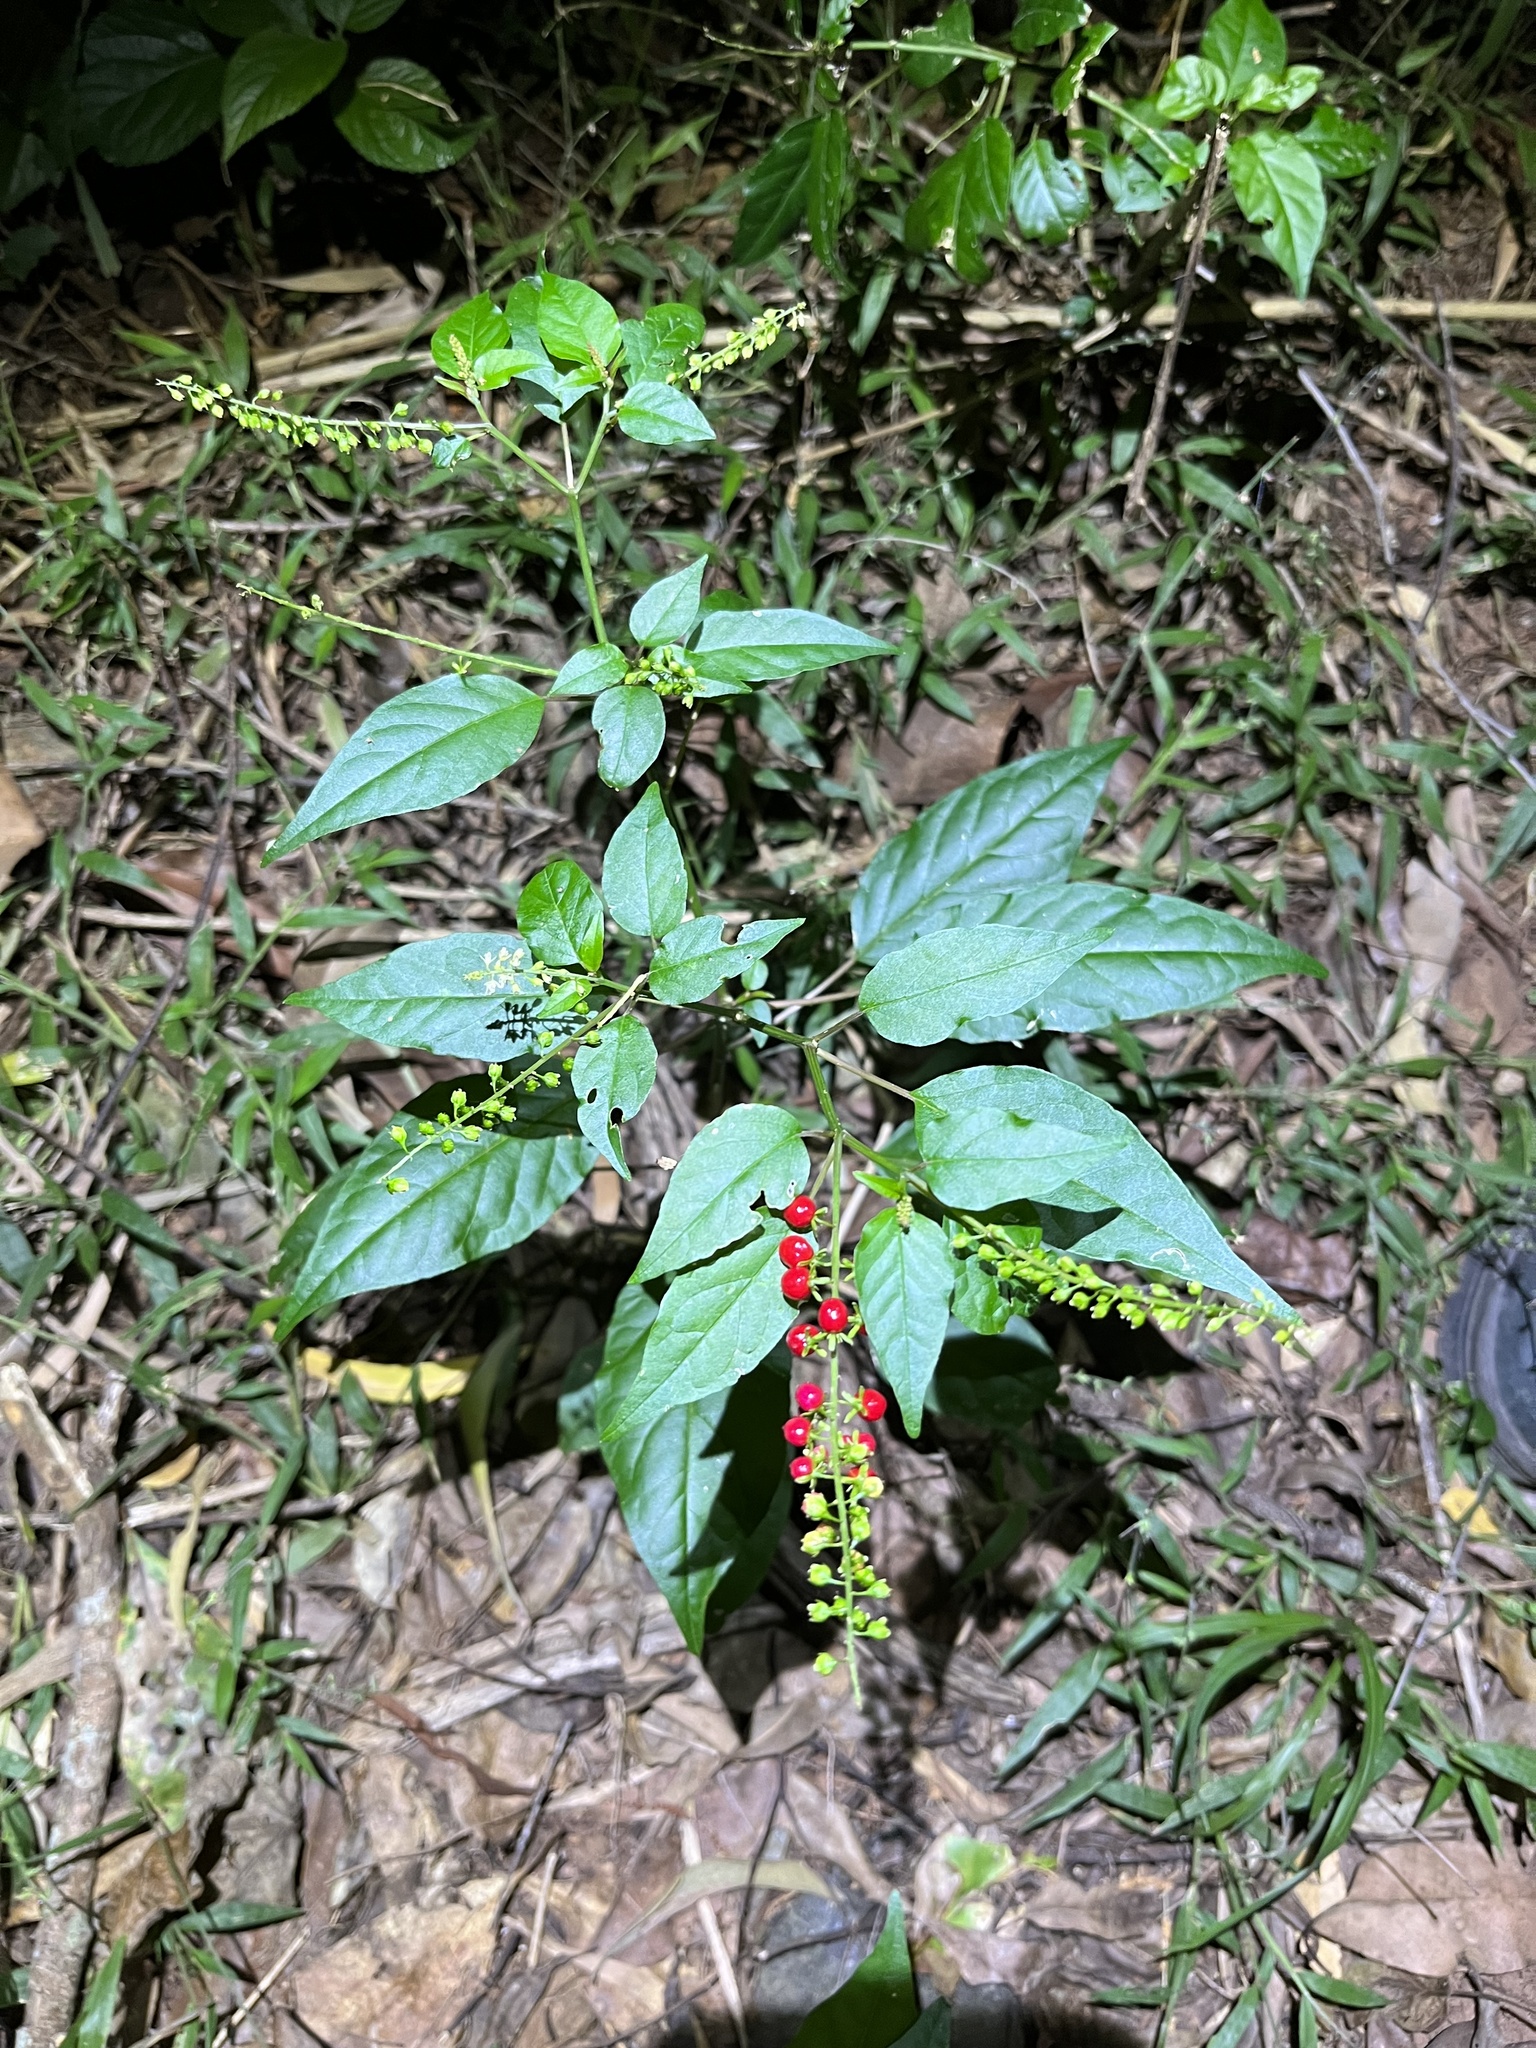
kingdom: Plantae
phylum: Tracheophyta
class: Magnoliopsida
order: Caryophyllales
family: Phytolaccaceae
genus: Rivina
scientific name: Rivina humilis
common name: Rougeplant
